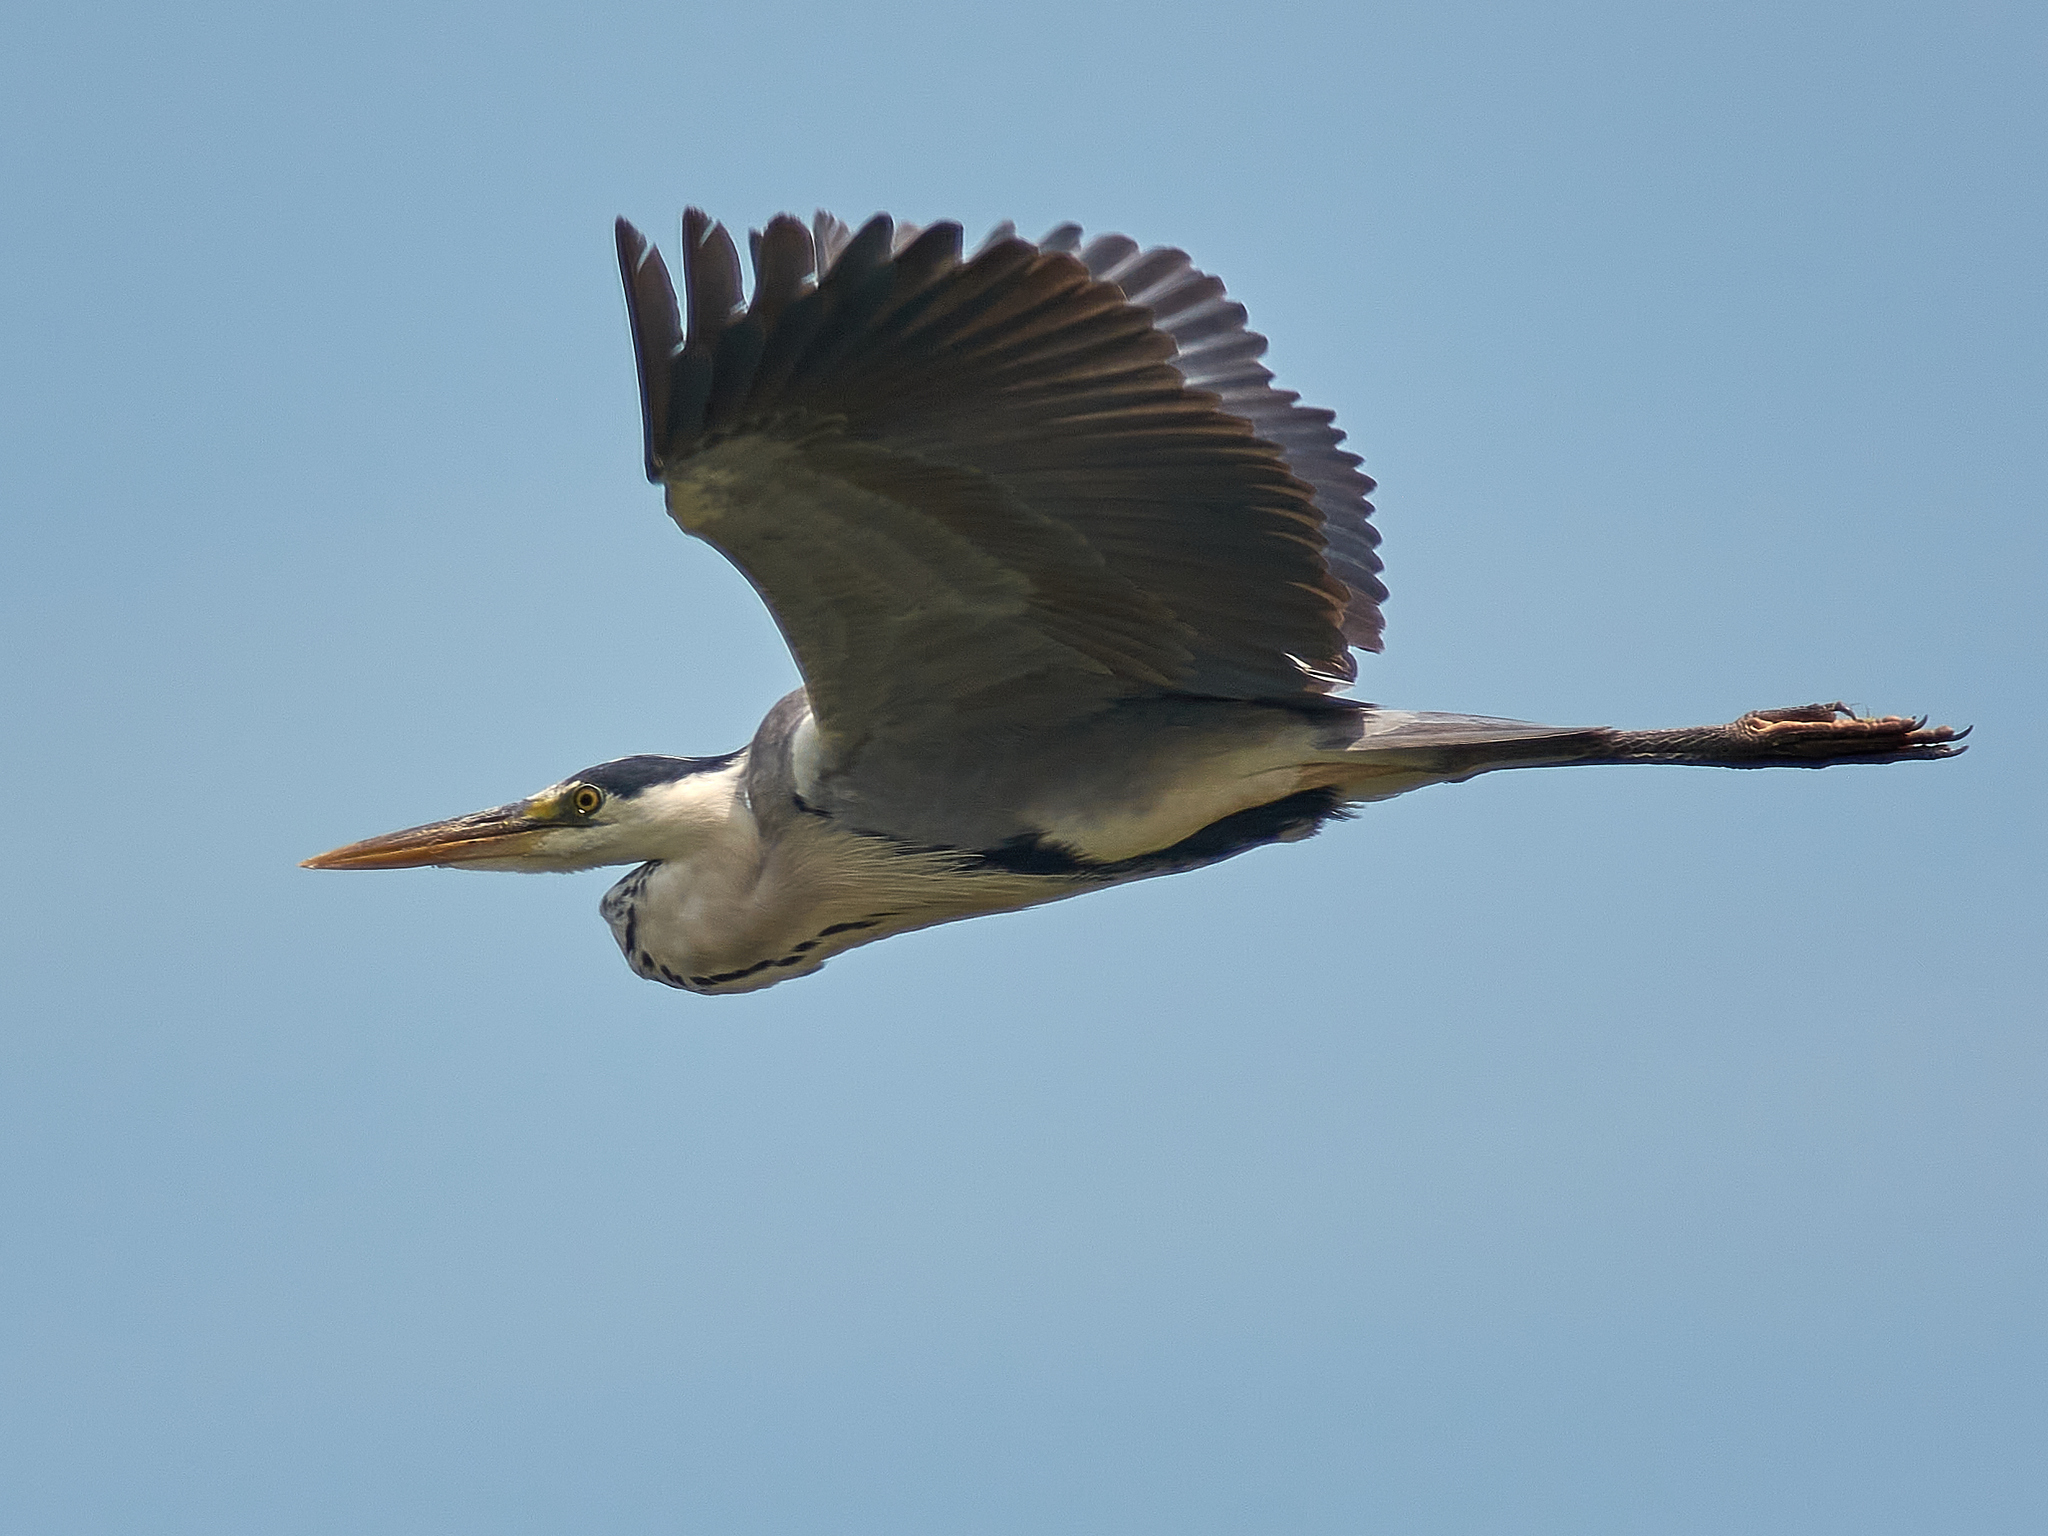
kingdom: Animalia
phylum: Chordata
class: Aves
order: Pelecaniformes
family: Ardeidae
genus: Ardea
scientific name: Ardea cinerea
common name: Grey heron
